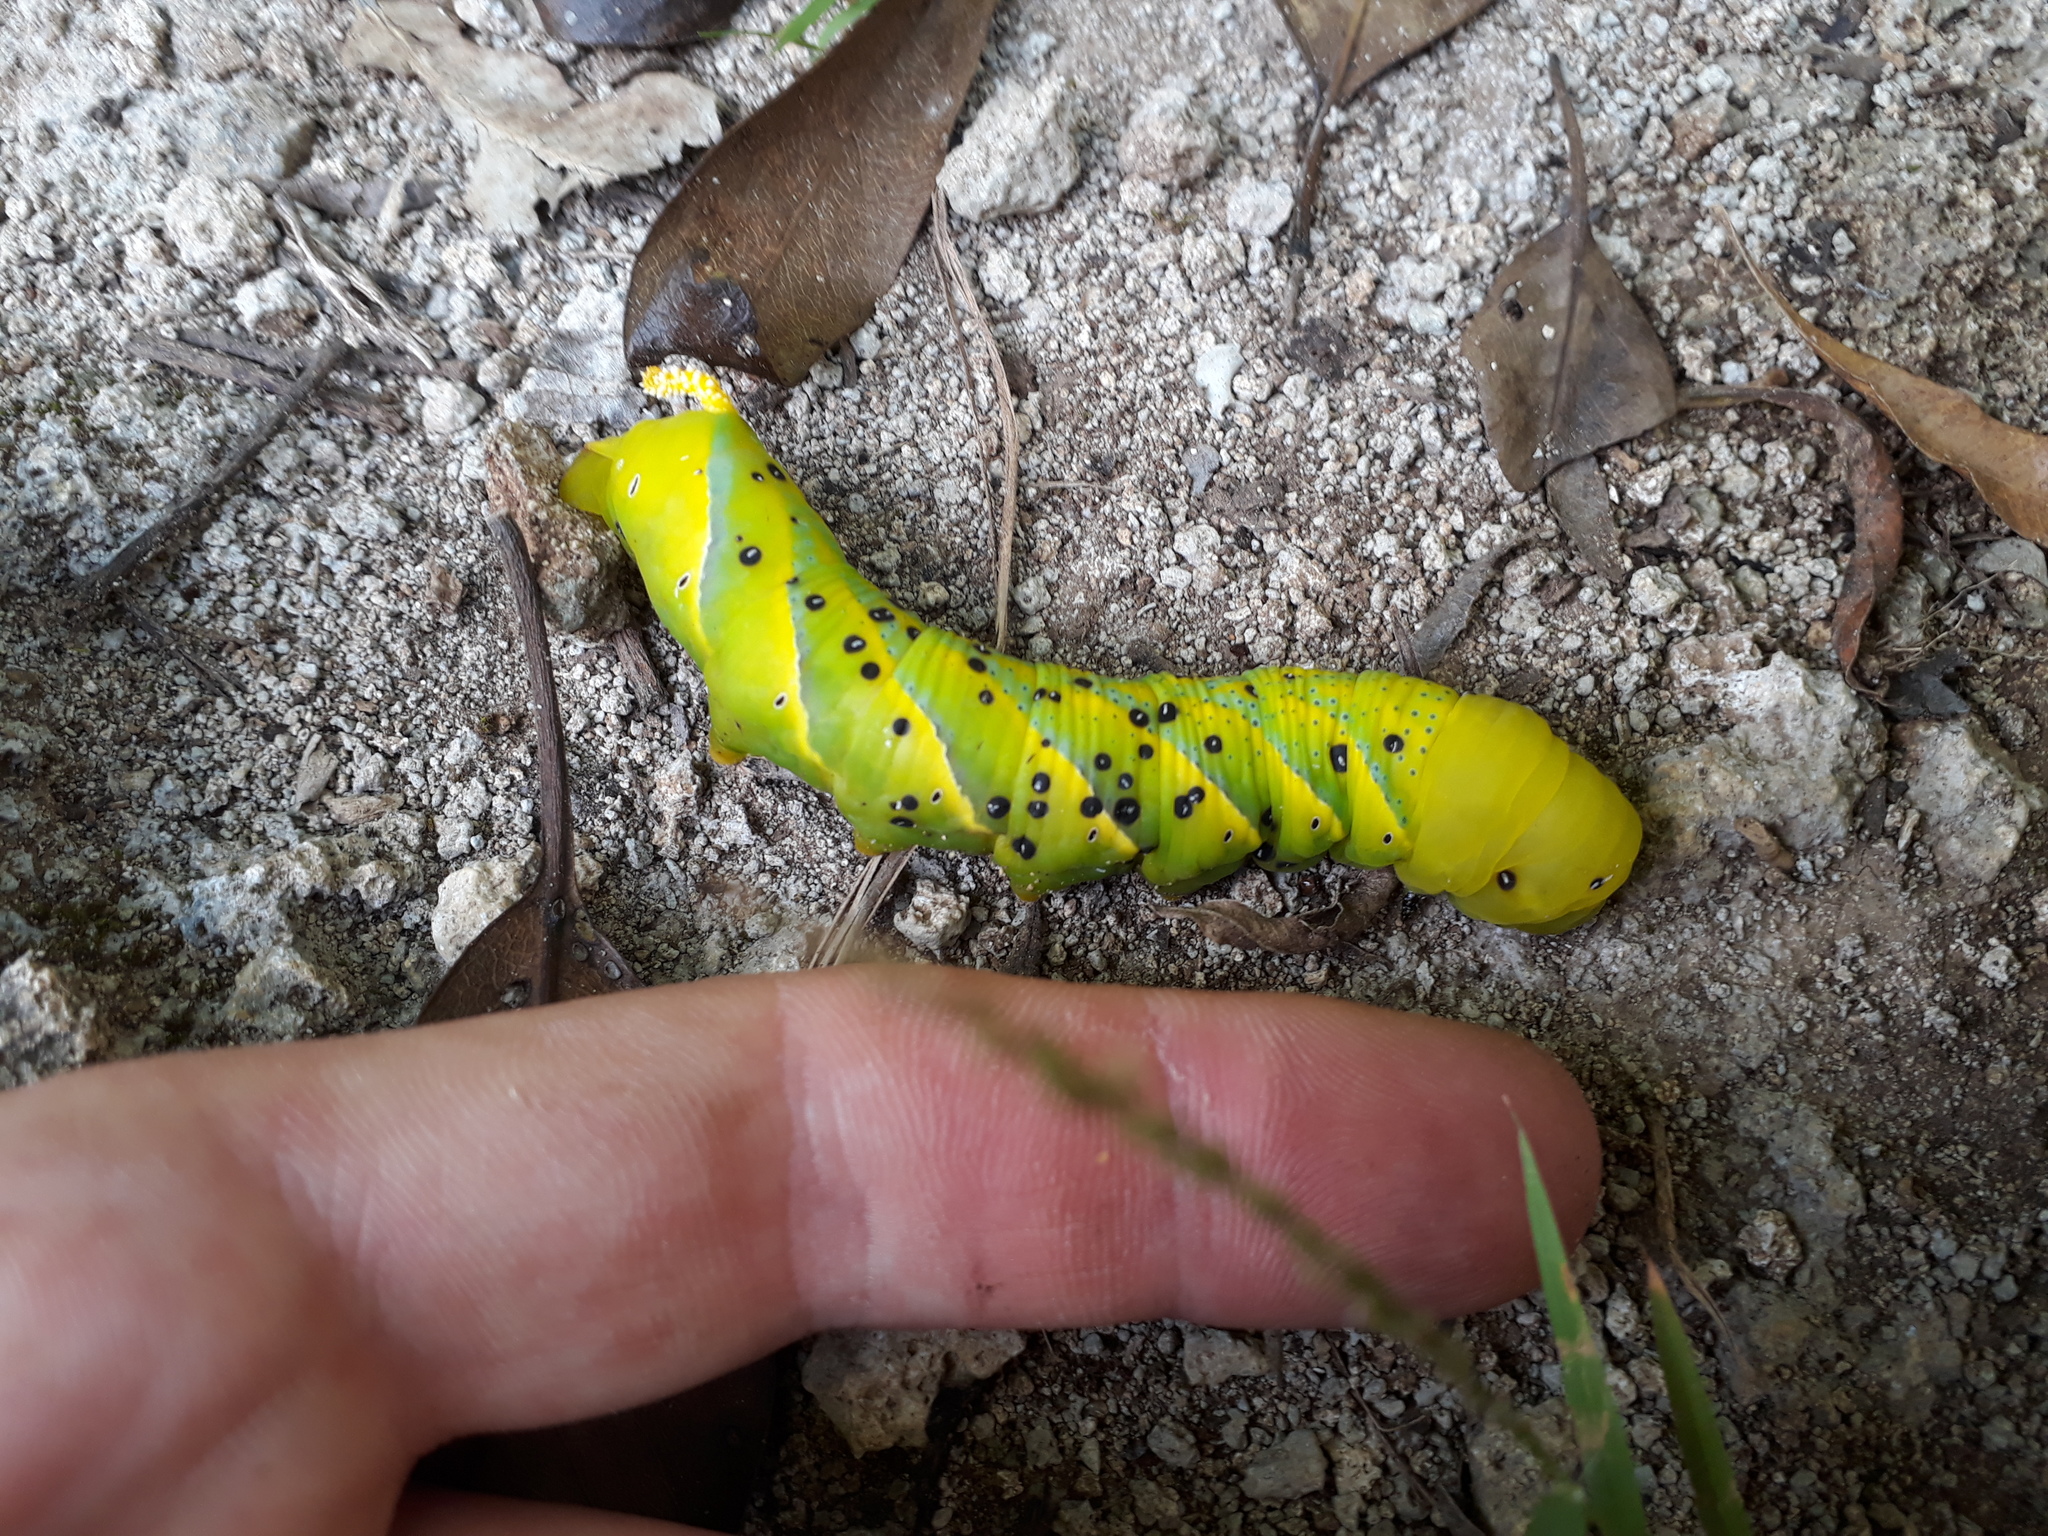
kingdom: Animalia
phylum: Arthropoda
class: Insecta
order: Lepidoptera
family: Sphingidae
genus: Acherontia
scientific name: Acherontia atropos
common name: Death's-head hawk moth
